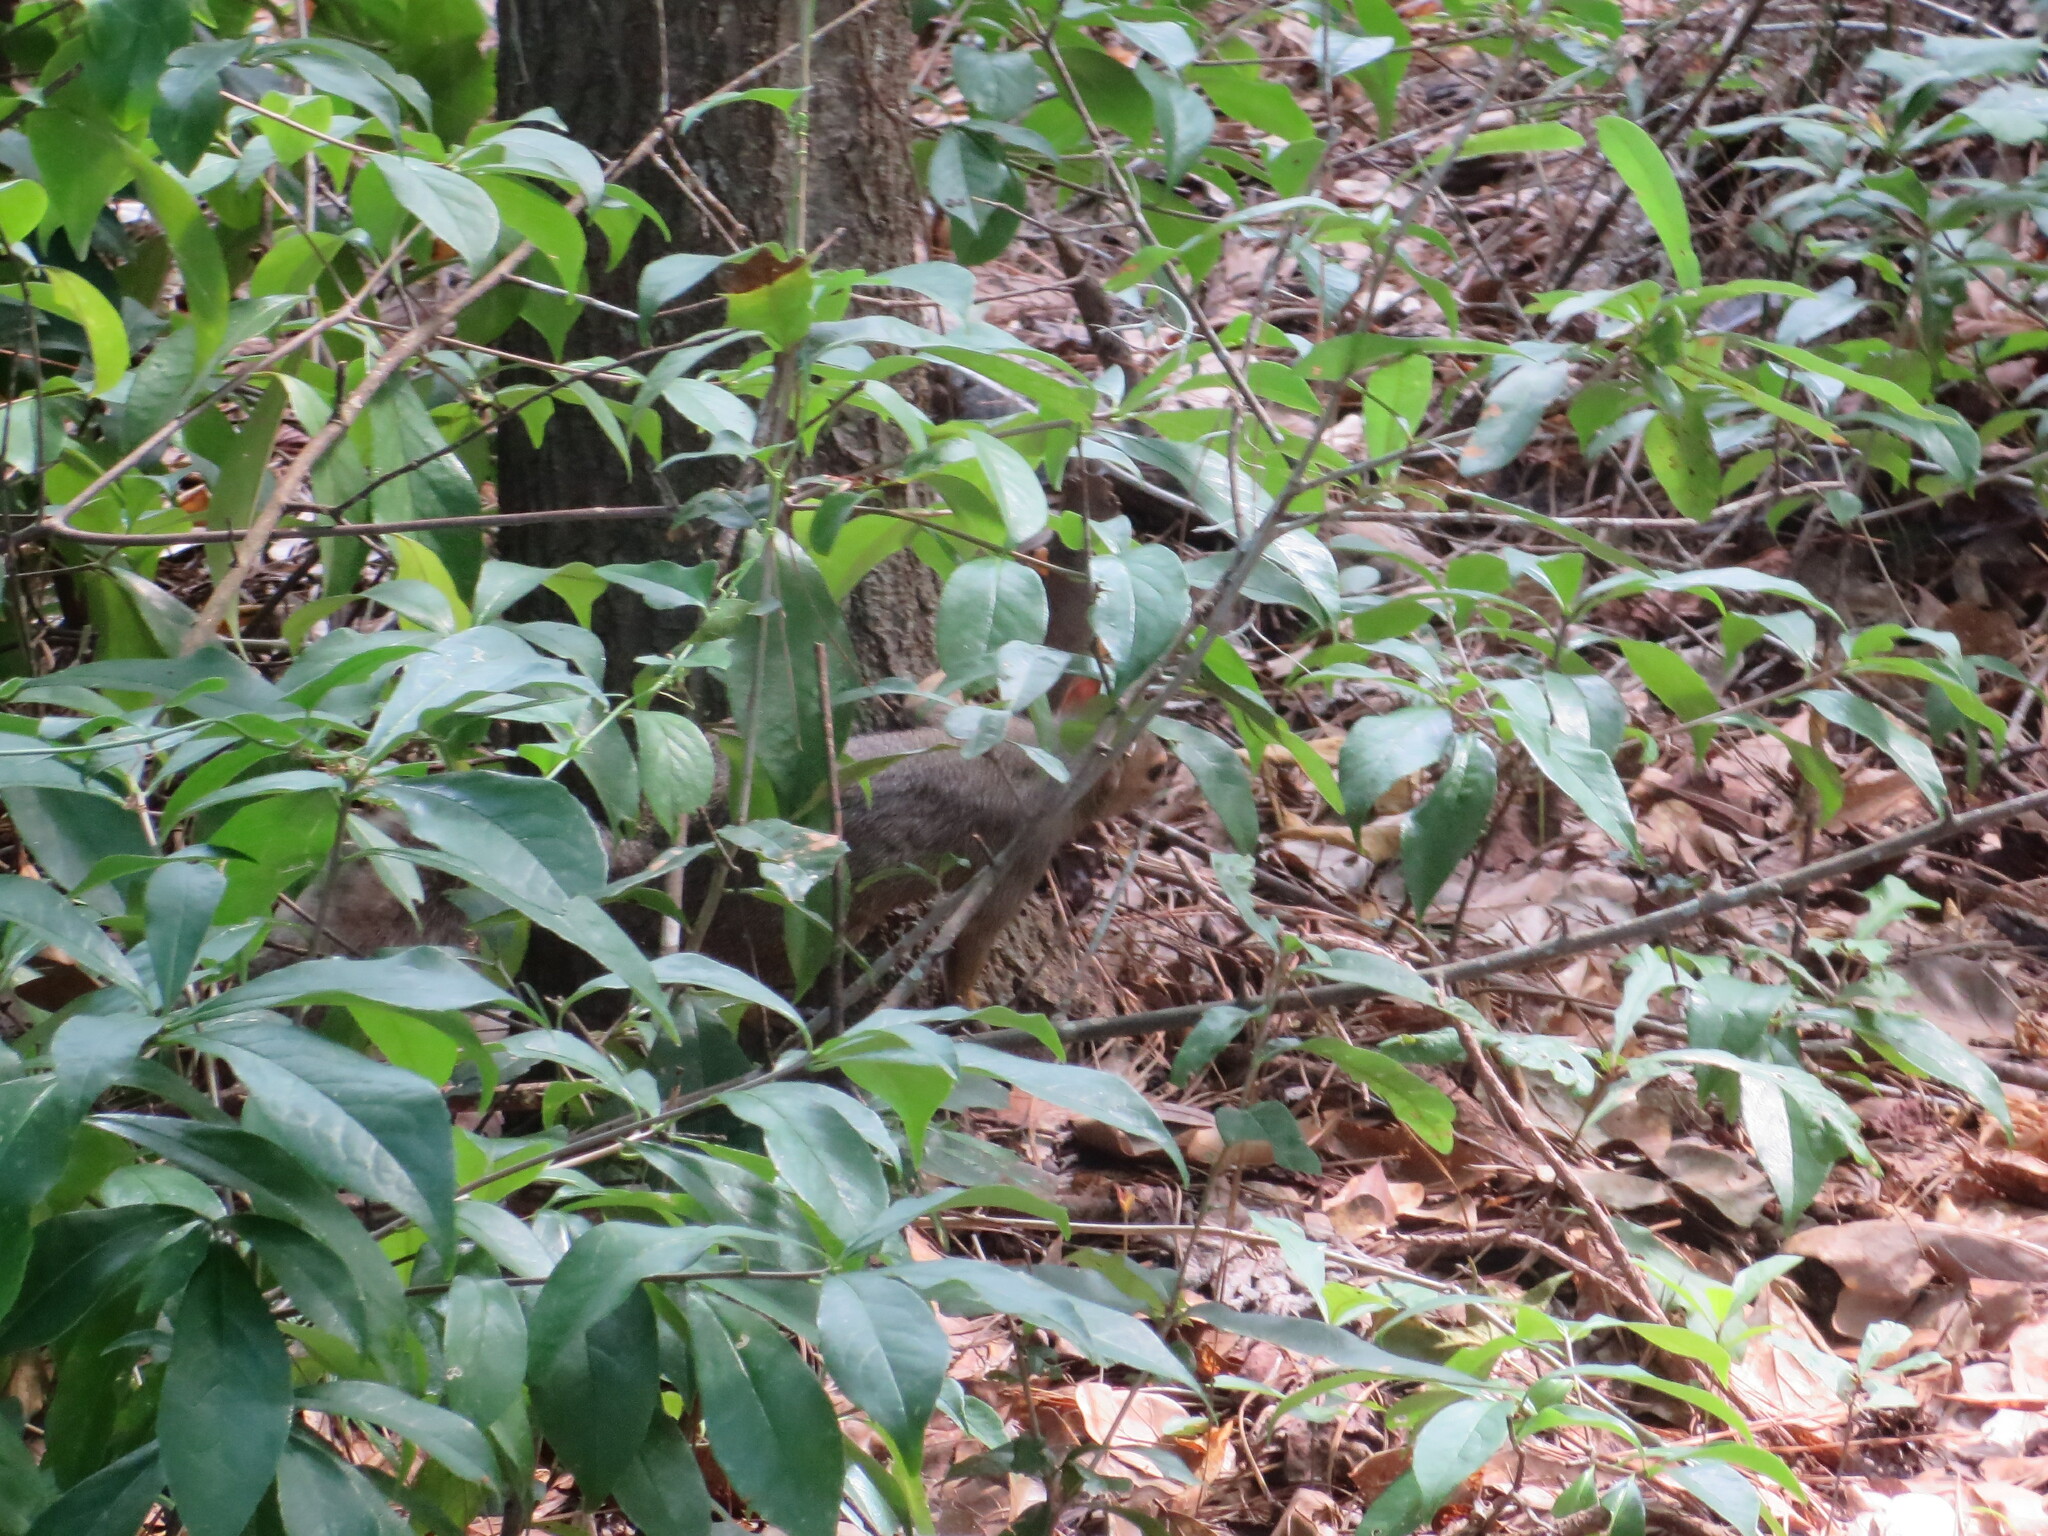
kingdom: Animalia
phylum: Chordata
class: Mammalia
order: Rodentia
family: Sciuridae
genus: Sciurus
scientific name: Sciurus carolinensis
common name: Eastern gray squirrel
